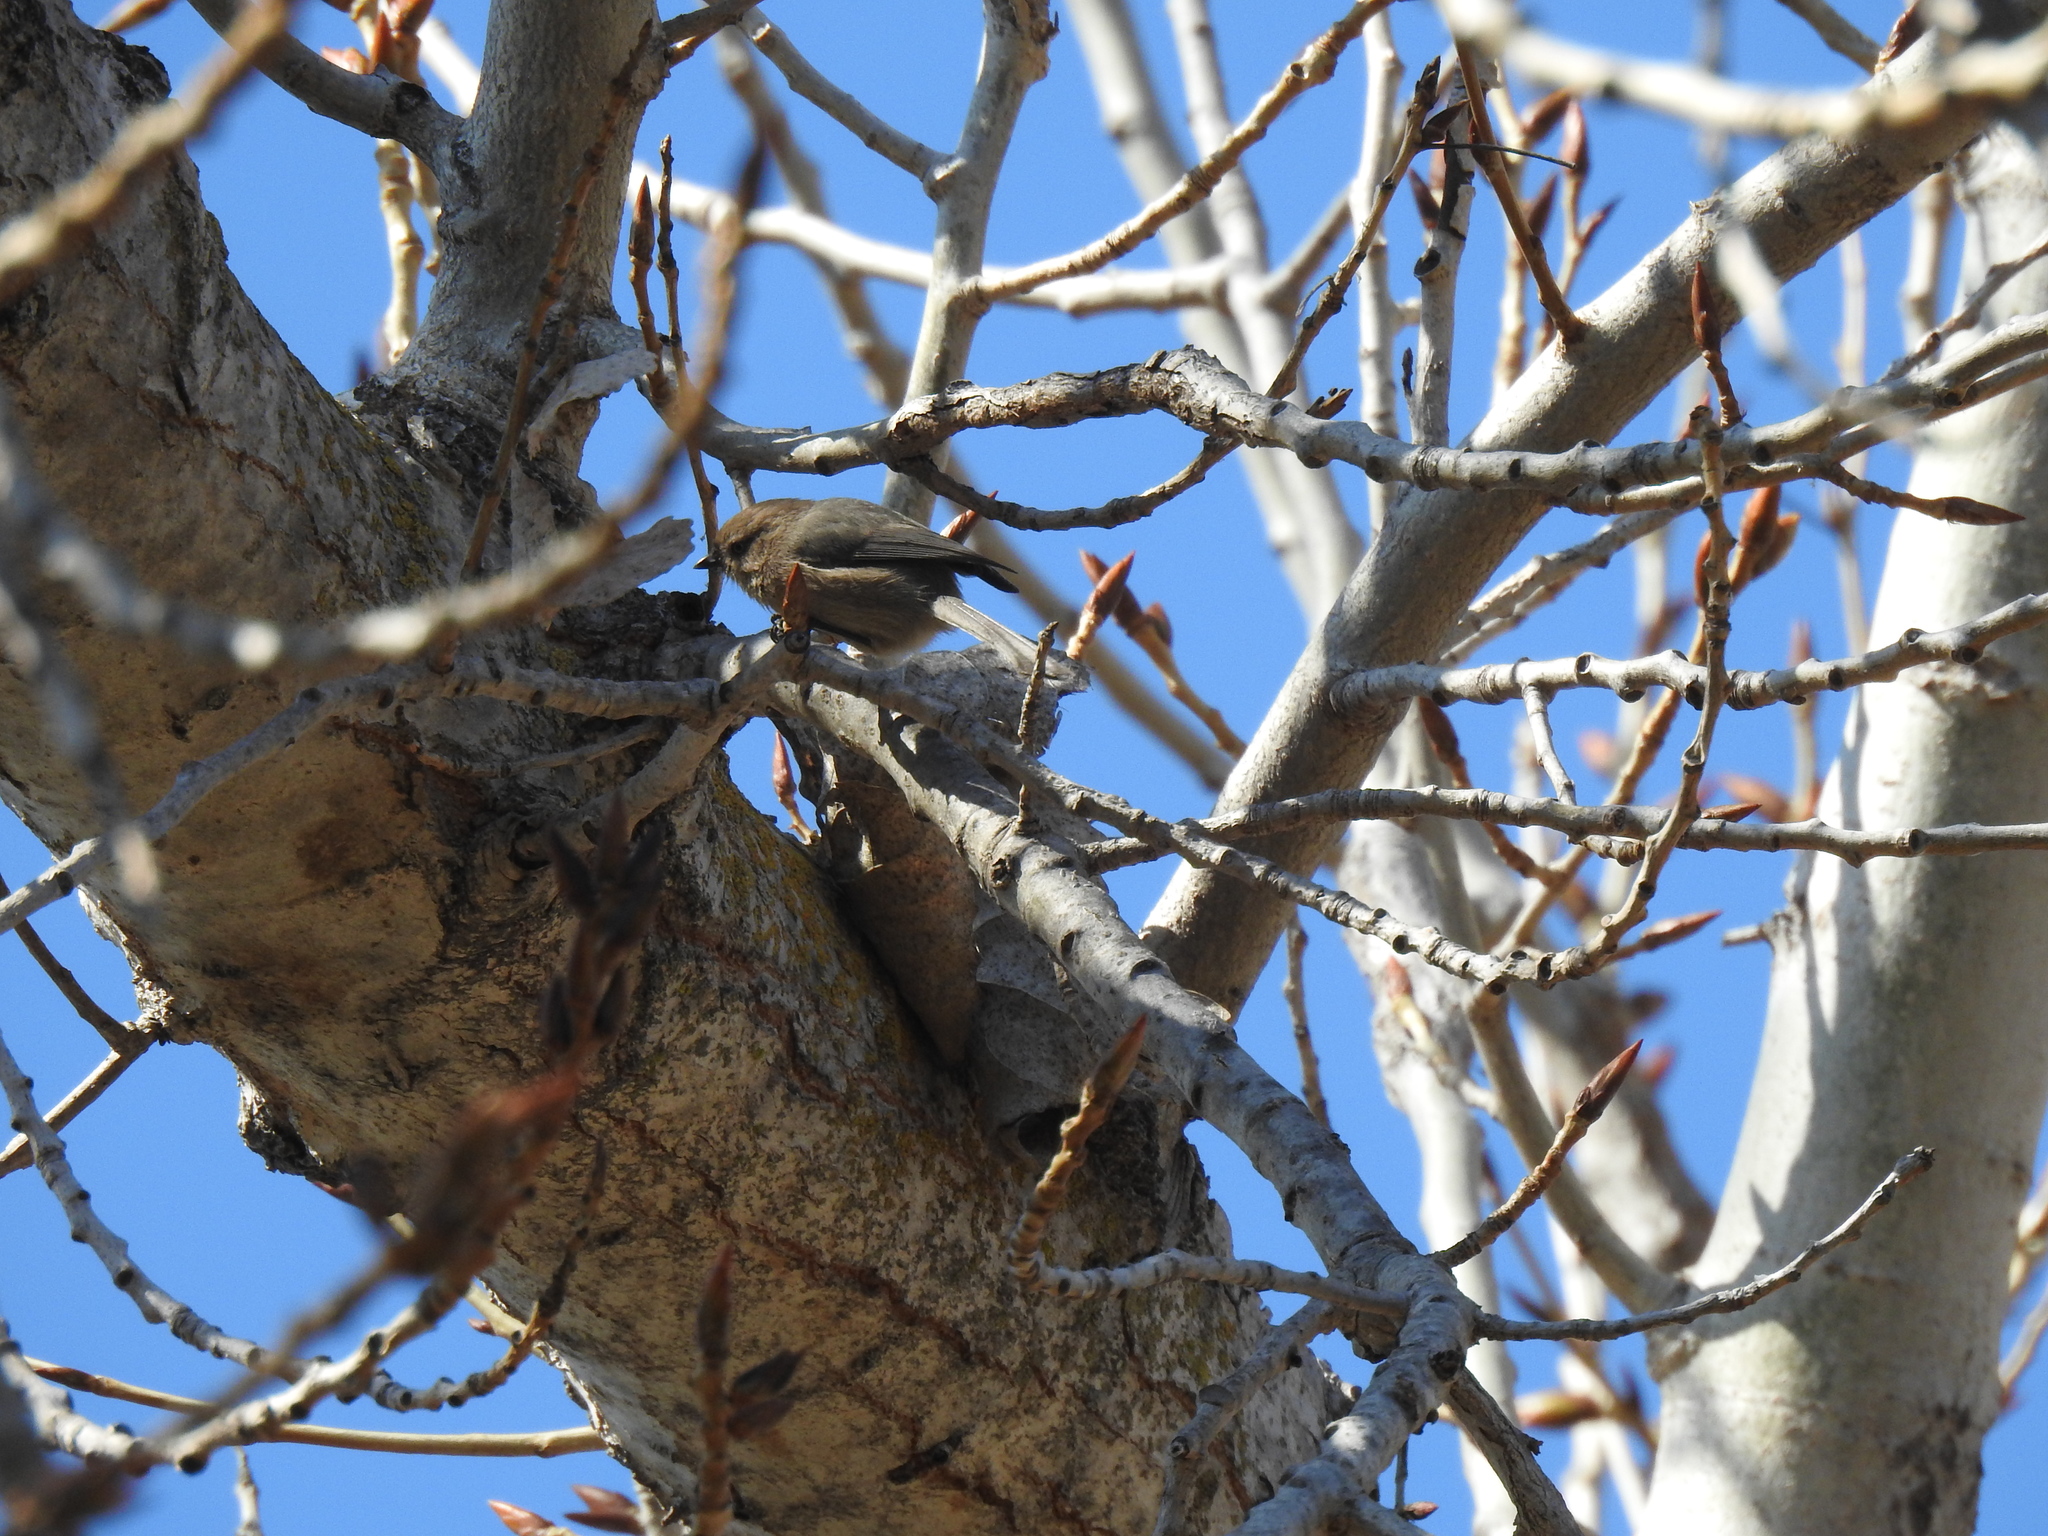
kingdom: Animalia
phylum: Chordata
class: Aves
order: Passeriformes
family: Aegithalidae
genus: Psaltriparus
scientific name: Psaltriparus minimus
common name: American bushtit
